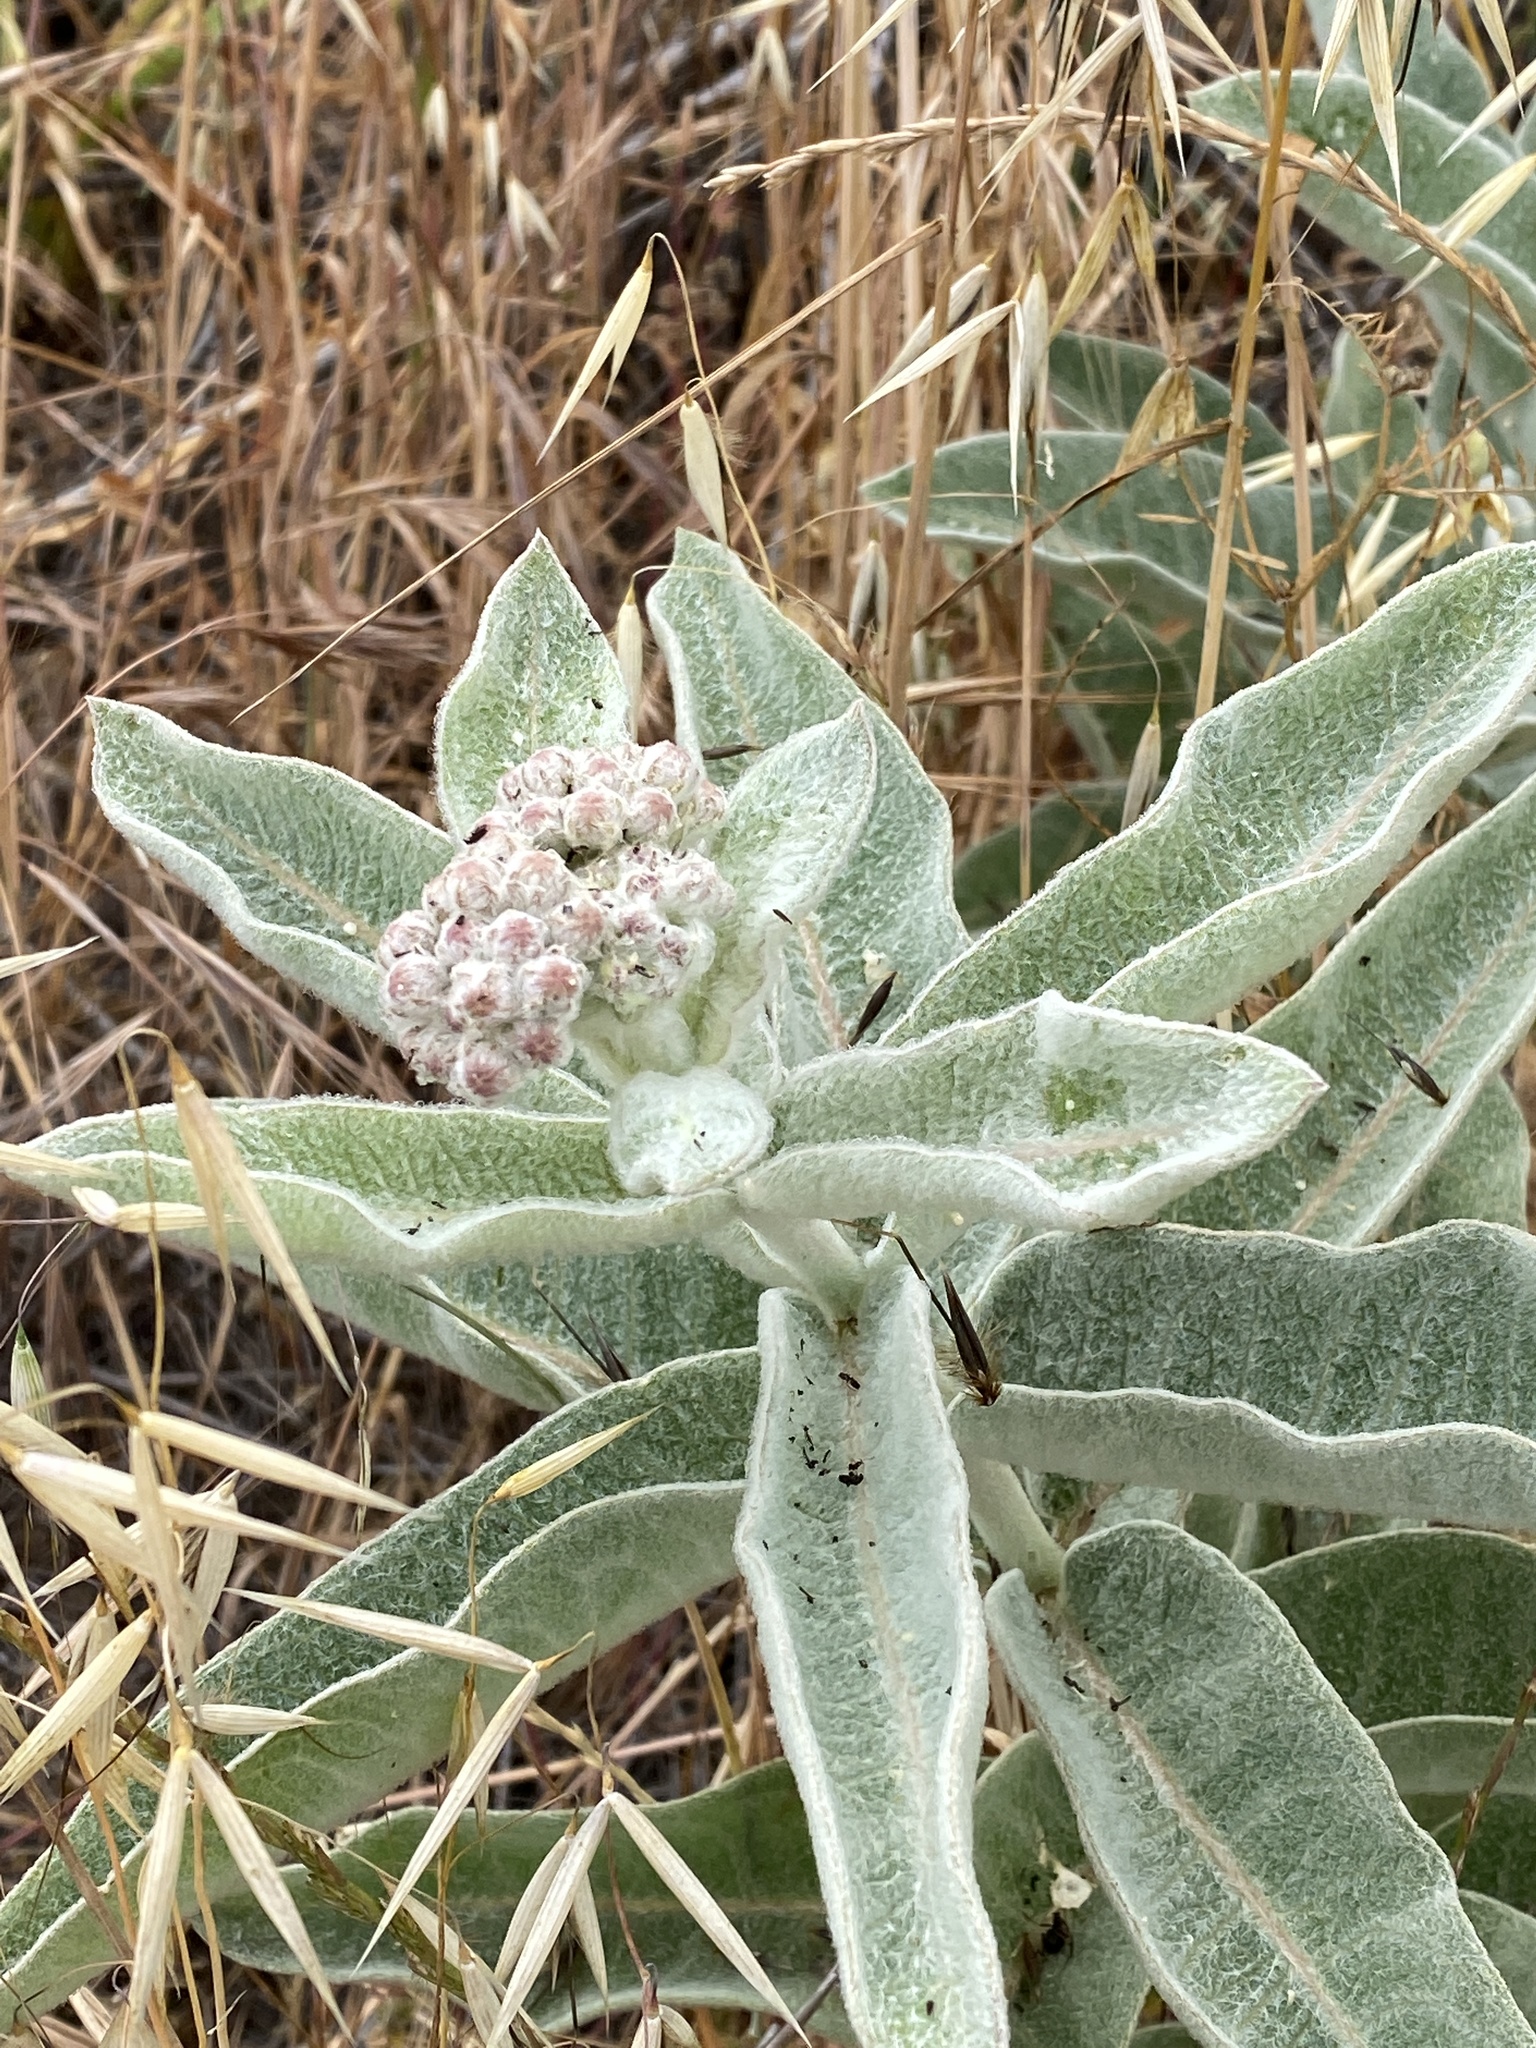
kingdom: Plantae
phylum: Tracheophyta
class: Magnoliopsida
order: Gentianales
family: Apocynaceae
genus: Asclepias
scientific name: Asclepias eriocarpa
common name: Indian milkweed
